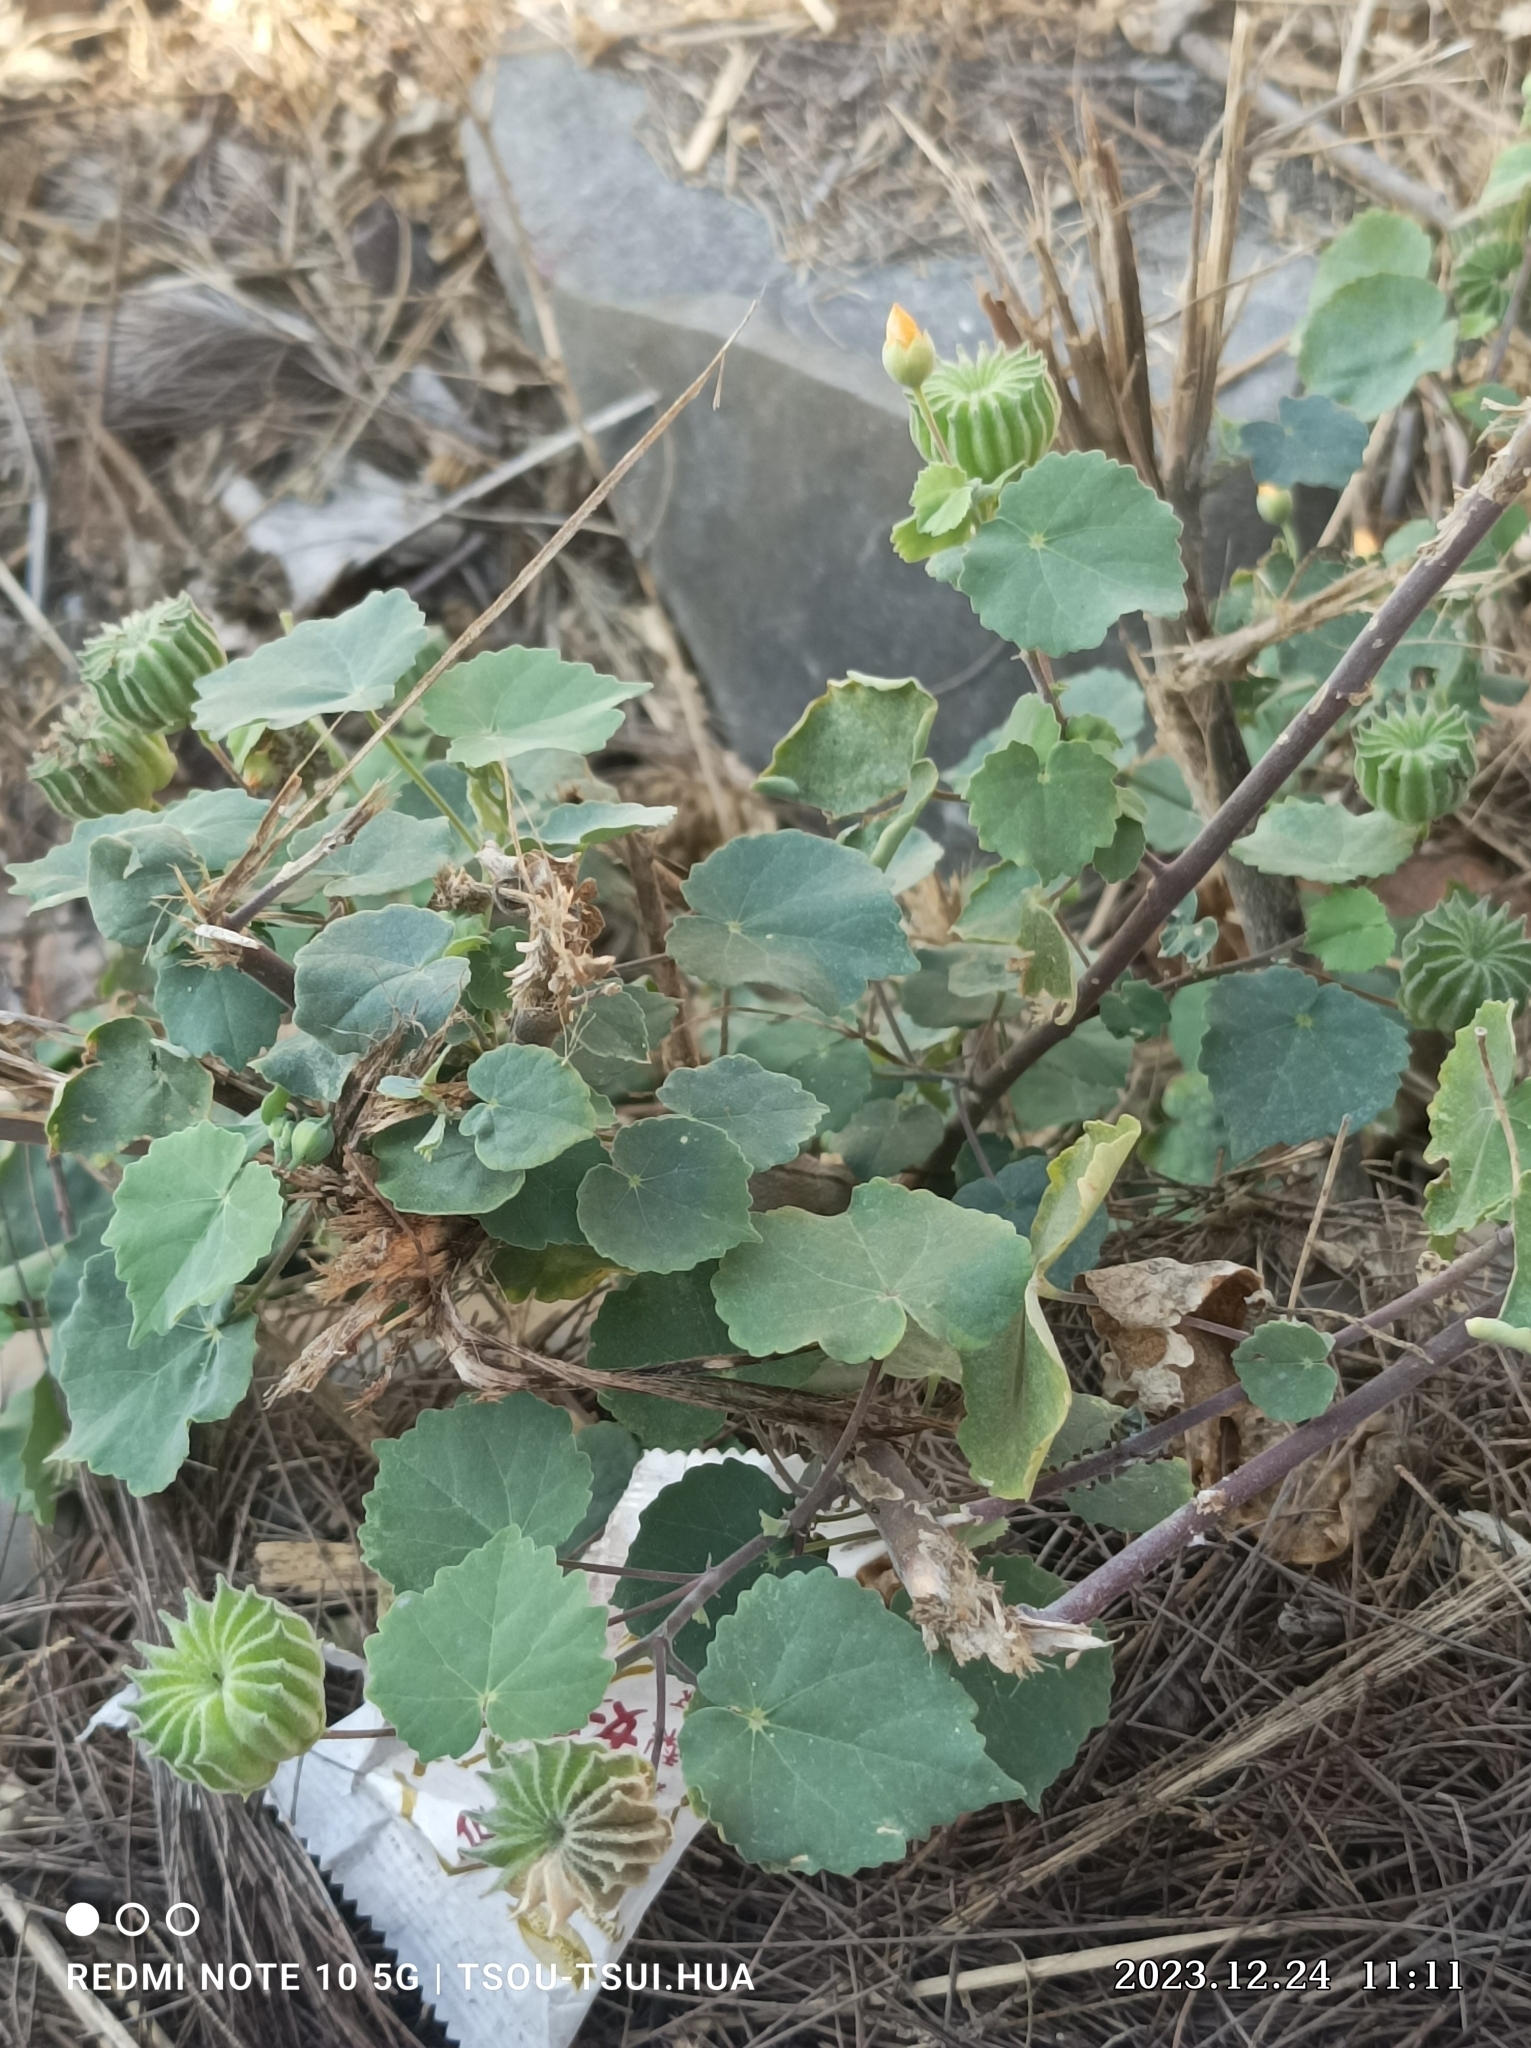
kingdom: Plantae
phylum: Tracheophyta
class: Magnoliopsida
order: Malvales
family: Malvaceae
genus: Abutilon
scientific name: Abutilon indicum
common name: Indian abutilon
